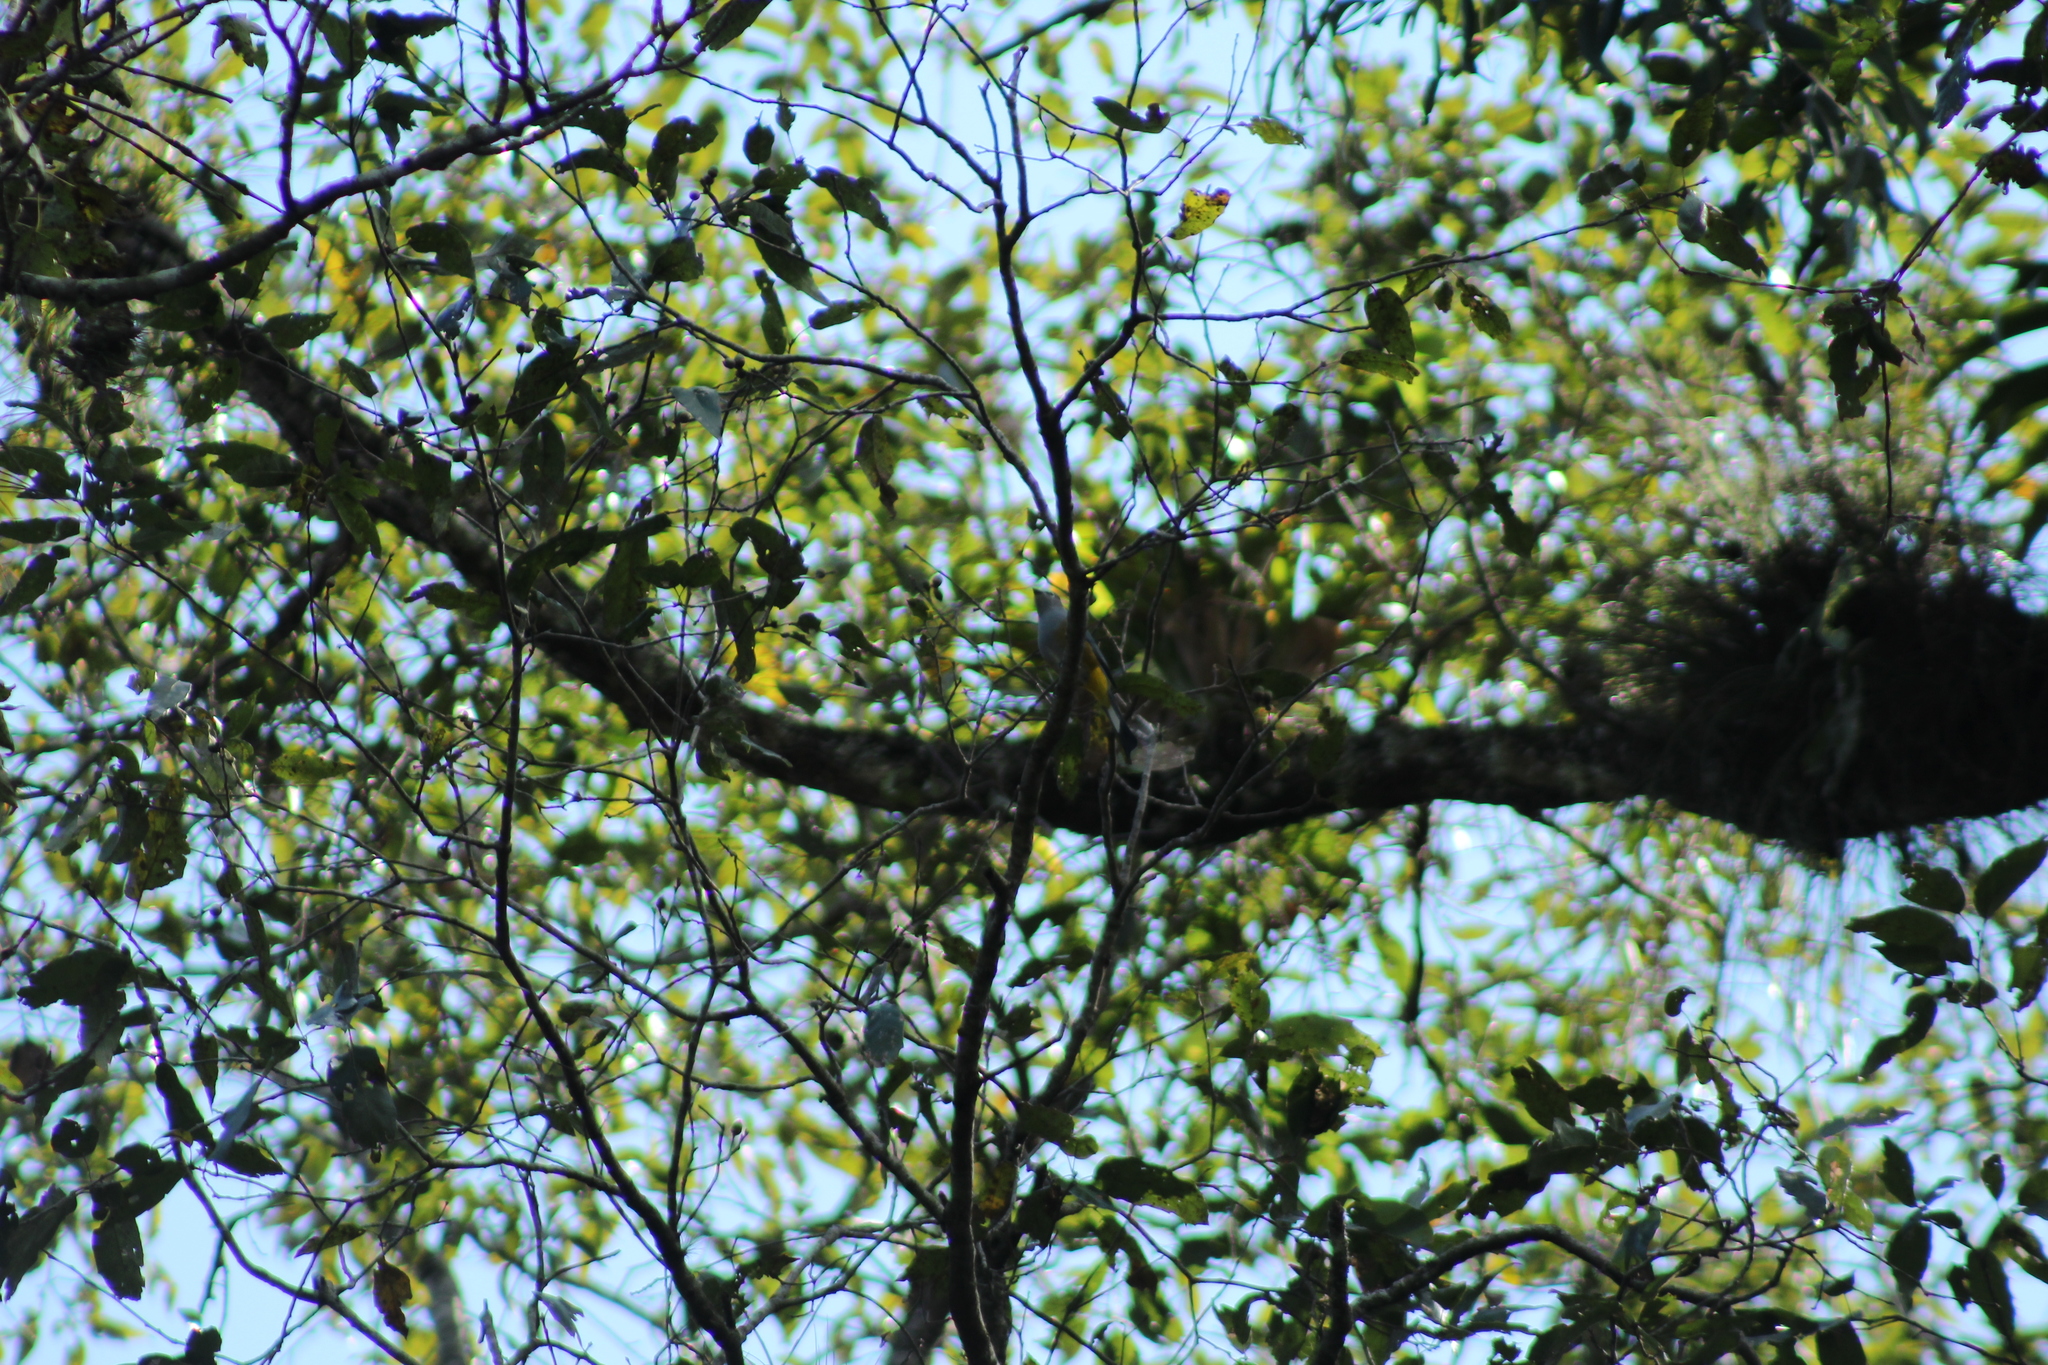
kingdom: Animalia
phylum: Chordata
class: Aves
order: Passeriformes
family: Ptilogonatidae
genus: Ptilogonys
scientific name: Ptilogonys cinereus
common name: Gray silky-flycatcher
